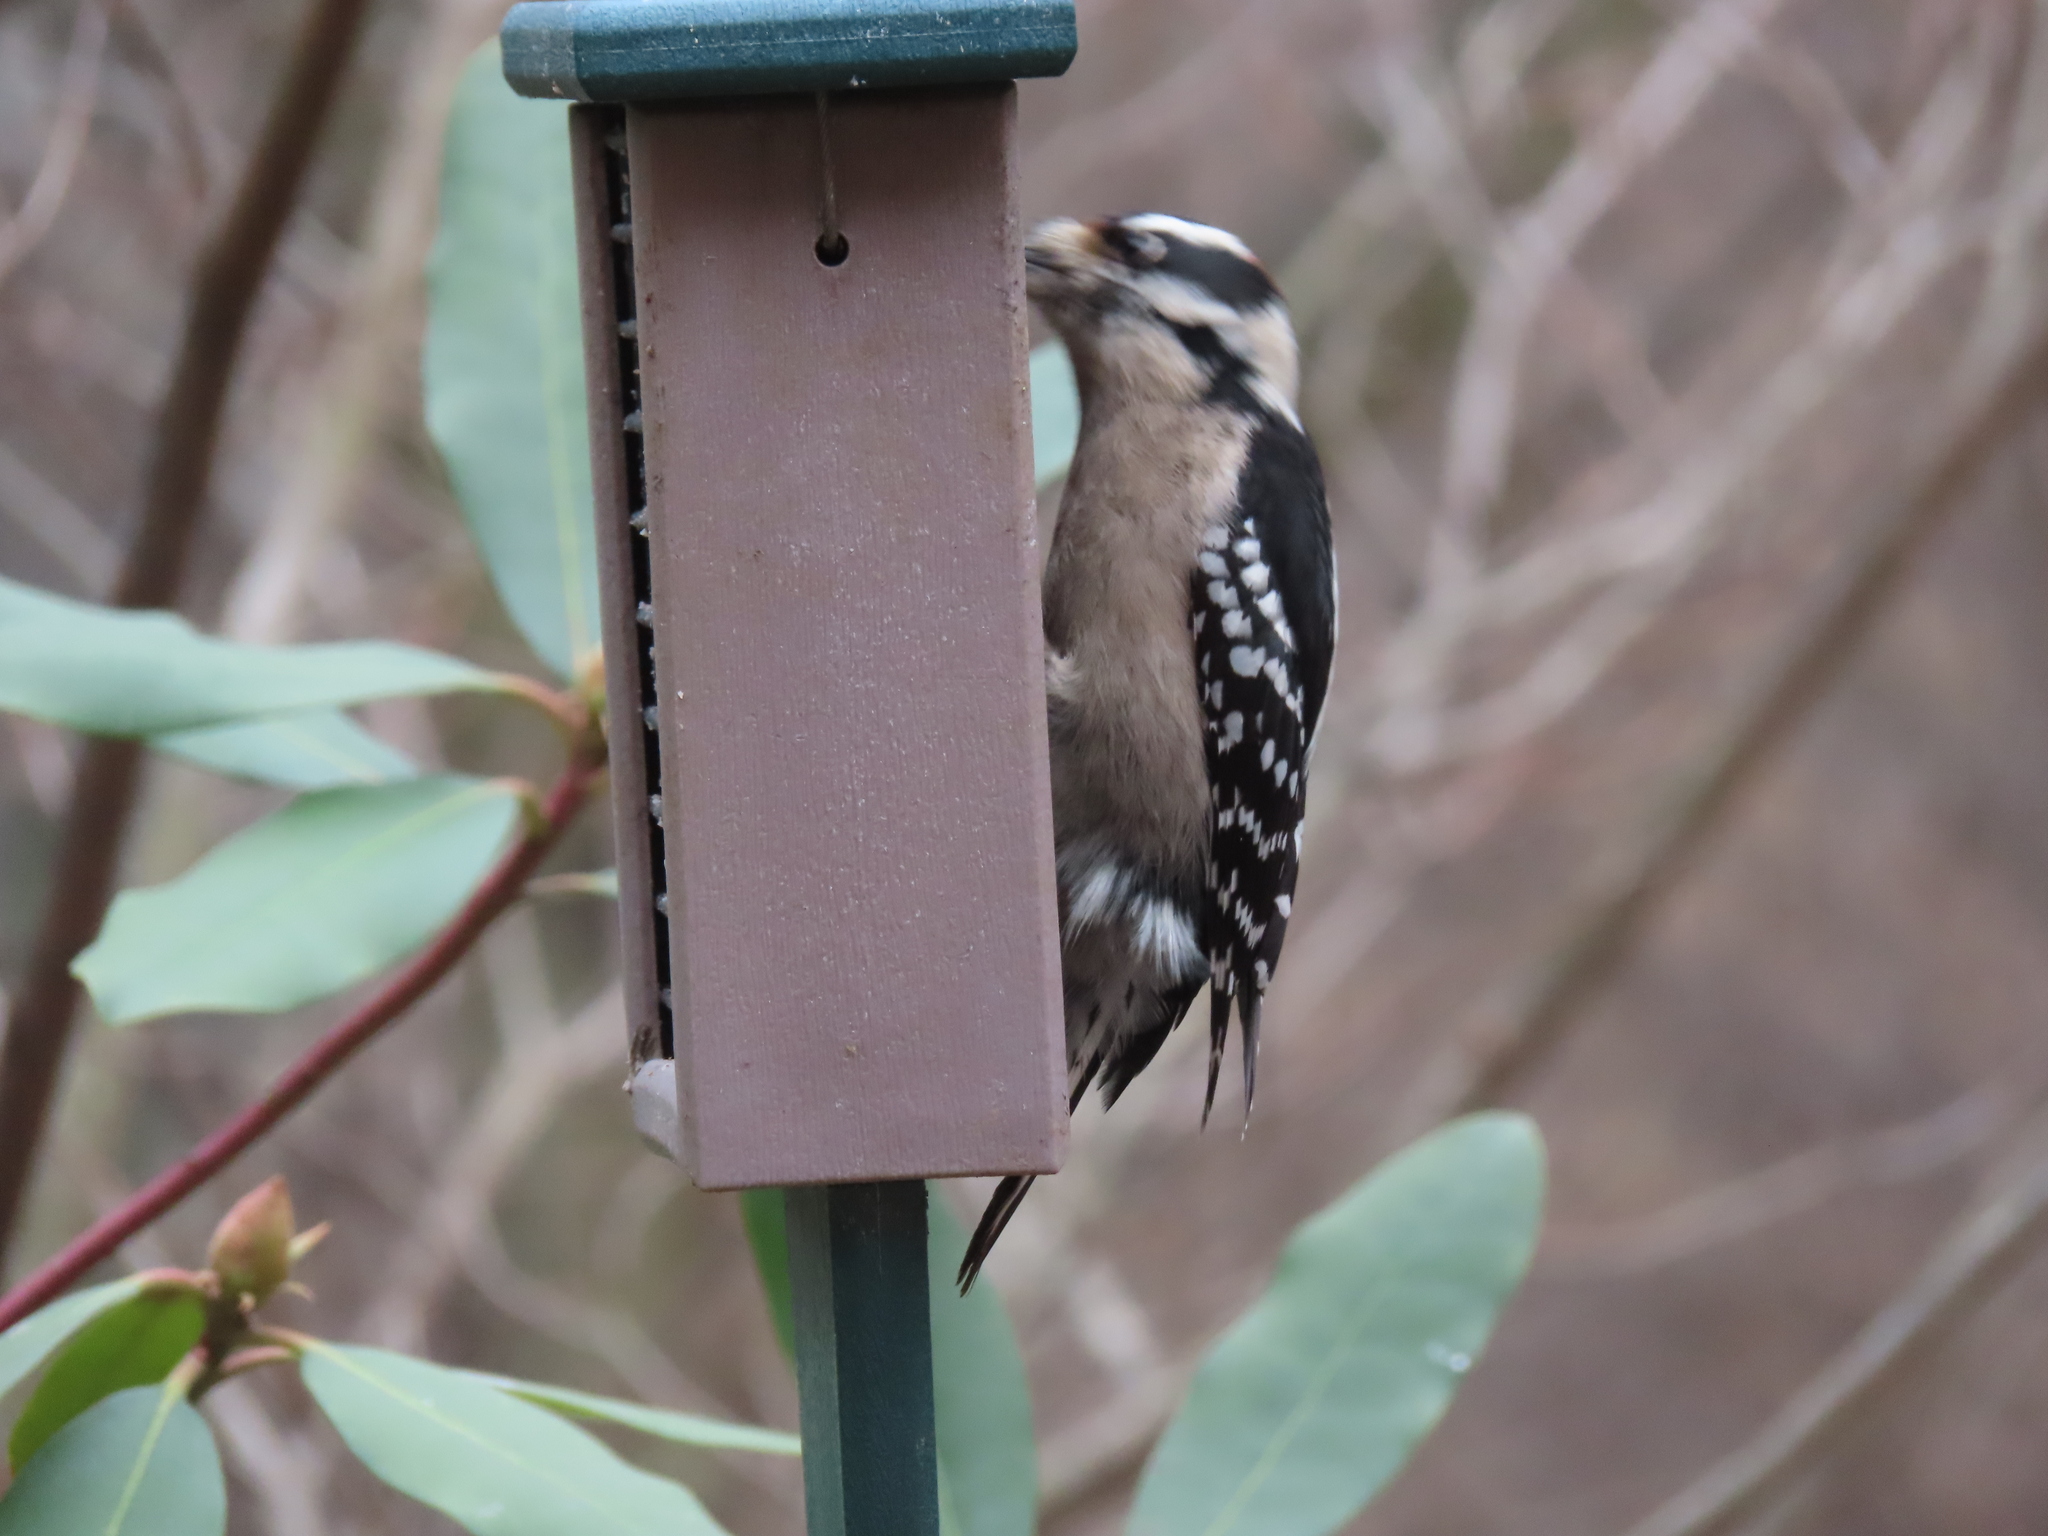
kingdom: Animalia
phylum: Chordata
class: Aves
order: Piciformes
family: Picidae
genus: Dryobates
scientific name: Dryobates pubescens
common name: Downy woodpecker
